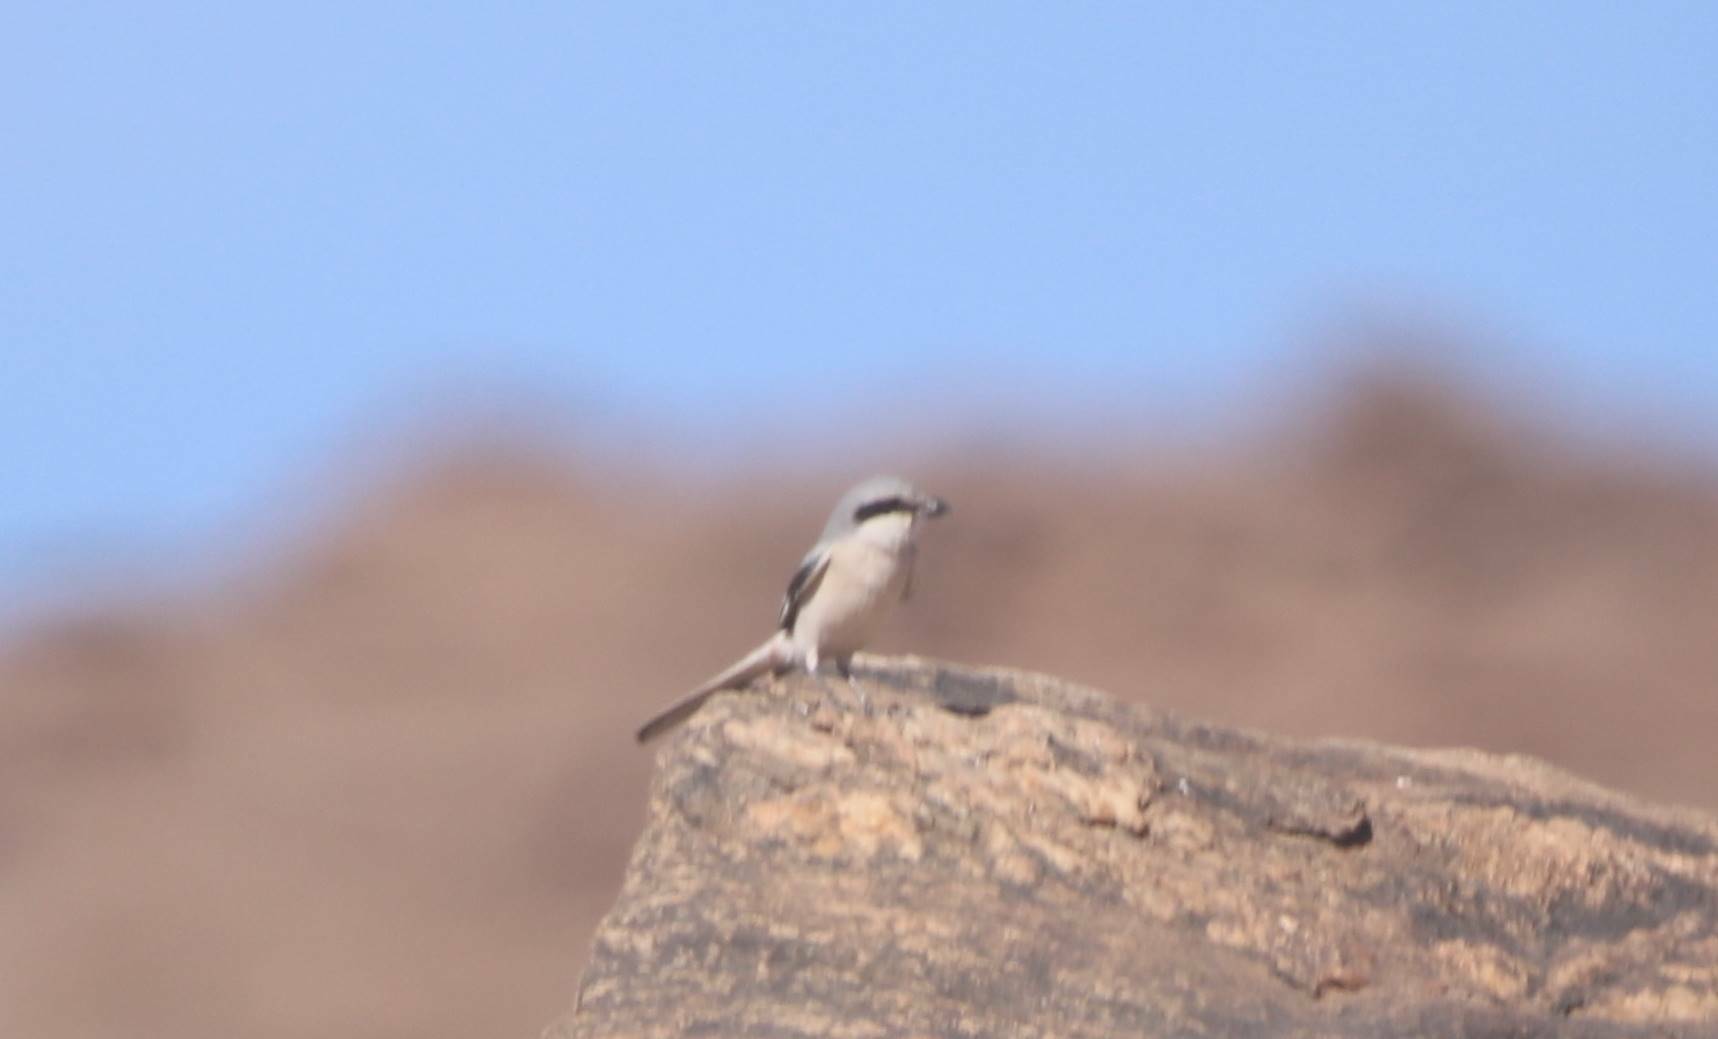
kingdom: Animalia
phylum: Chordata
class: Aves
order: Passeriformes
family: Laniidae
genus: Lanius
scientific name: Lanius excubitor
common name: Great grey shrike
